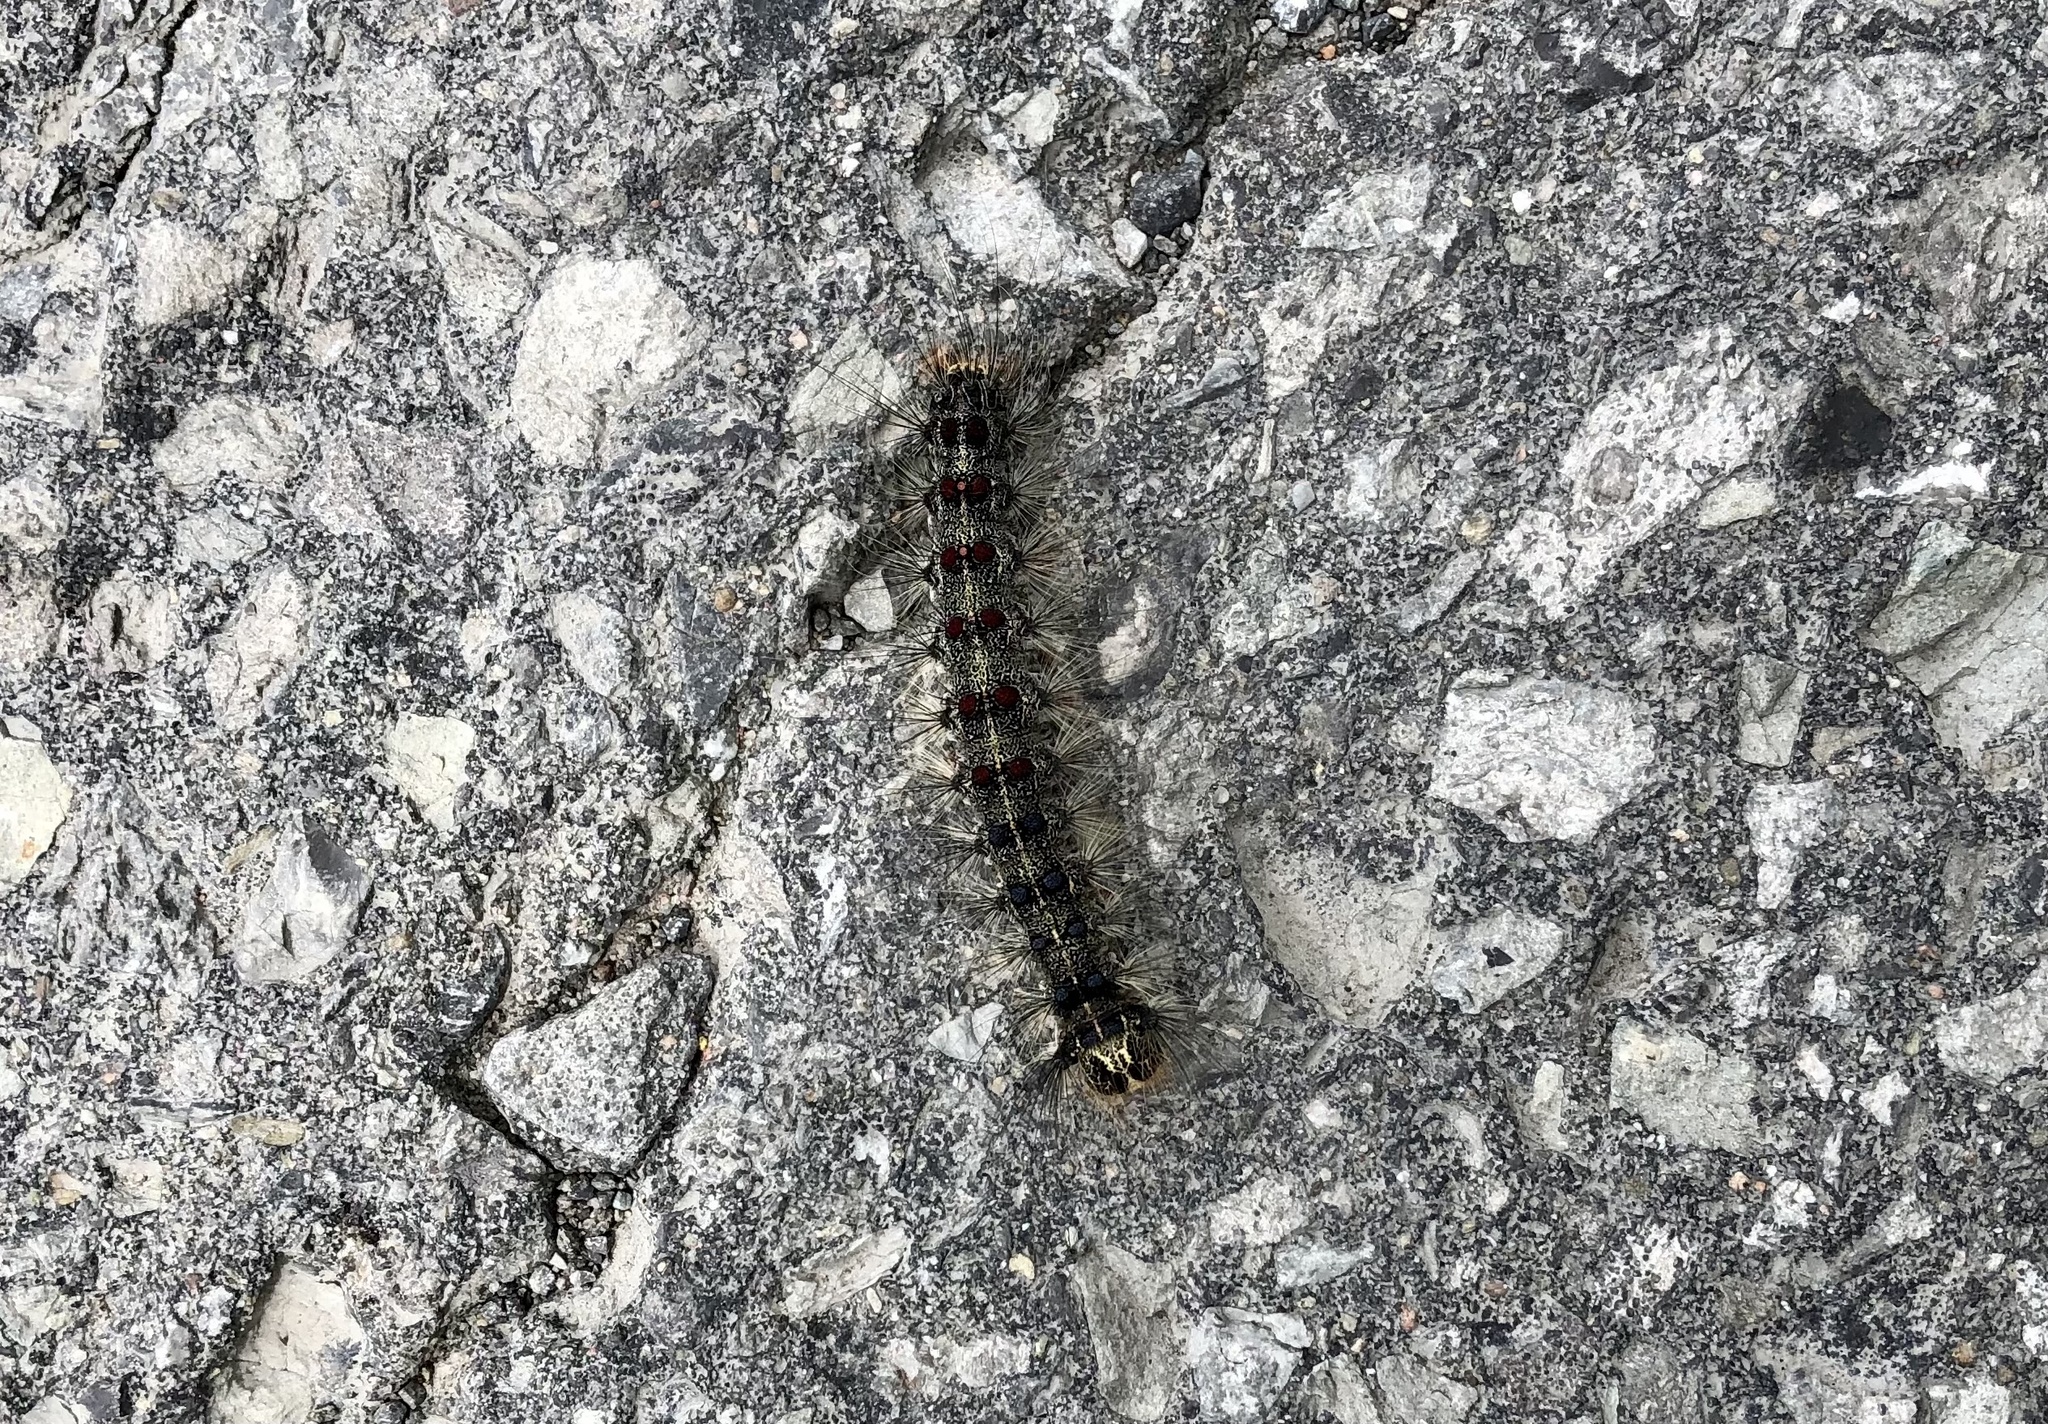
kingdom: Animalia
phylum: Arthropoda
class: Insecta
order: Lepidoptera
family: Erebidae
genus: Lymantria
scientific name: Lymantria dispar
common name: Gypsy moth
